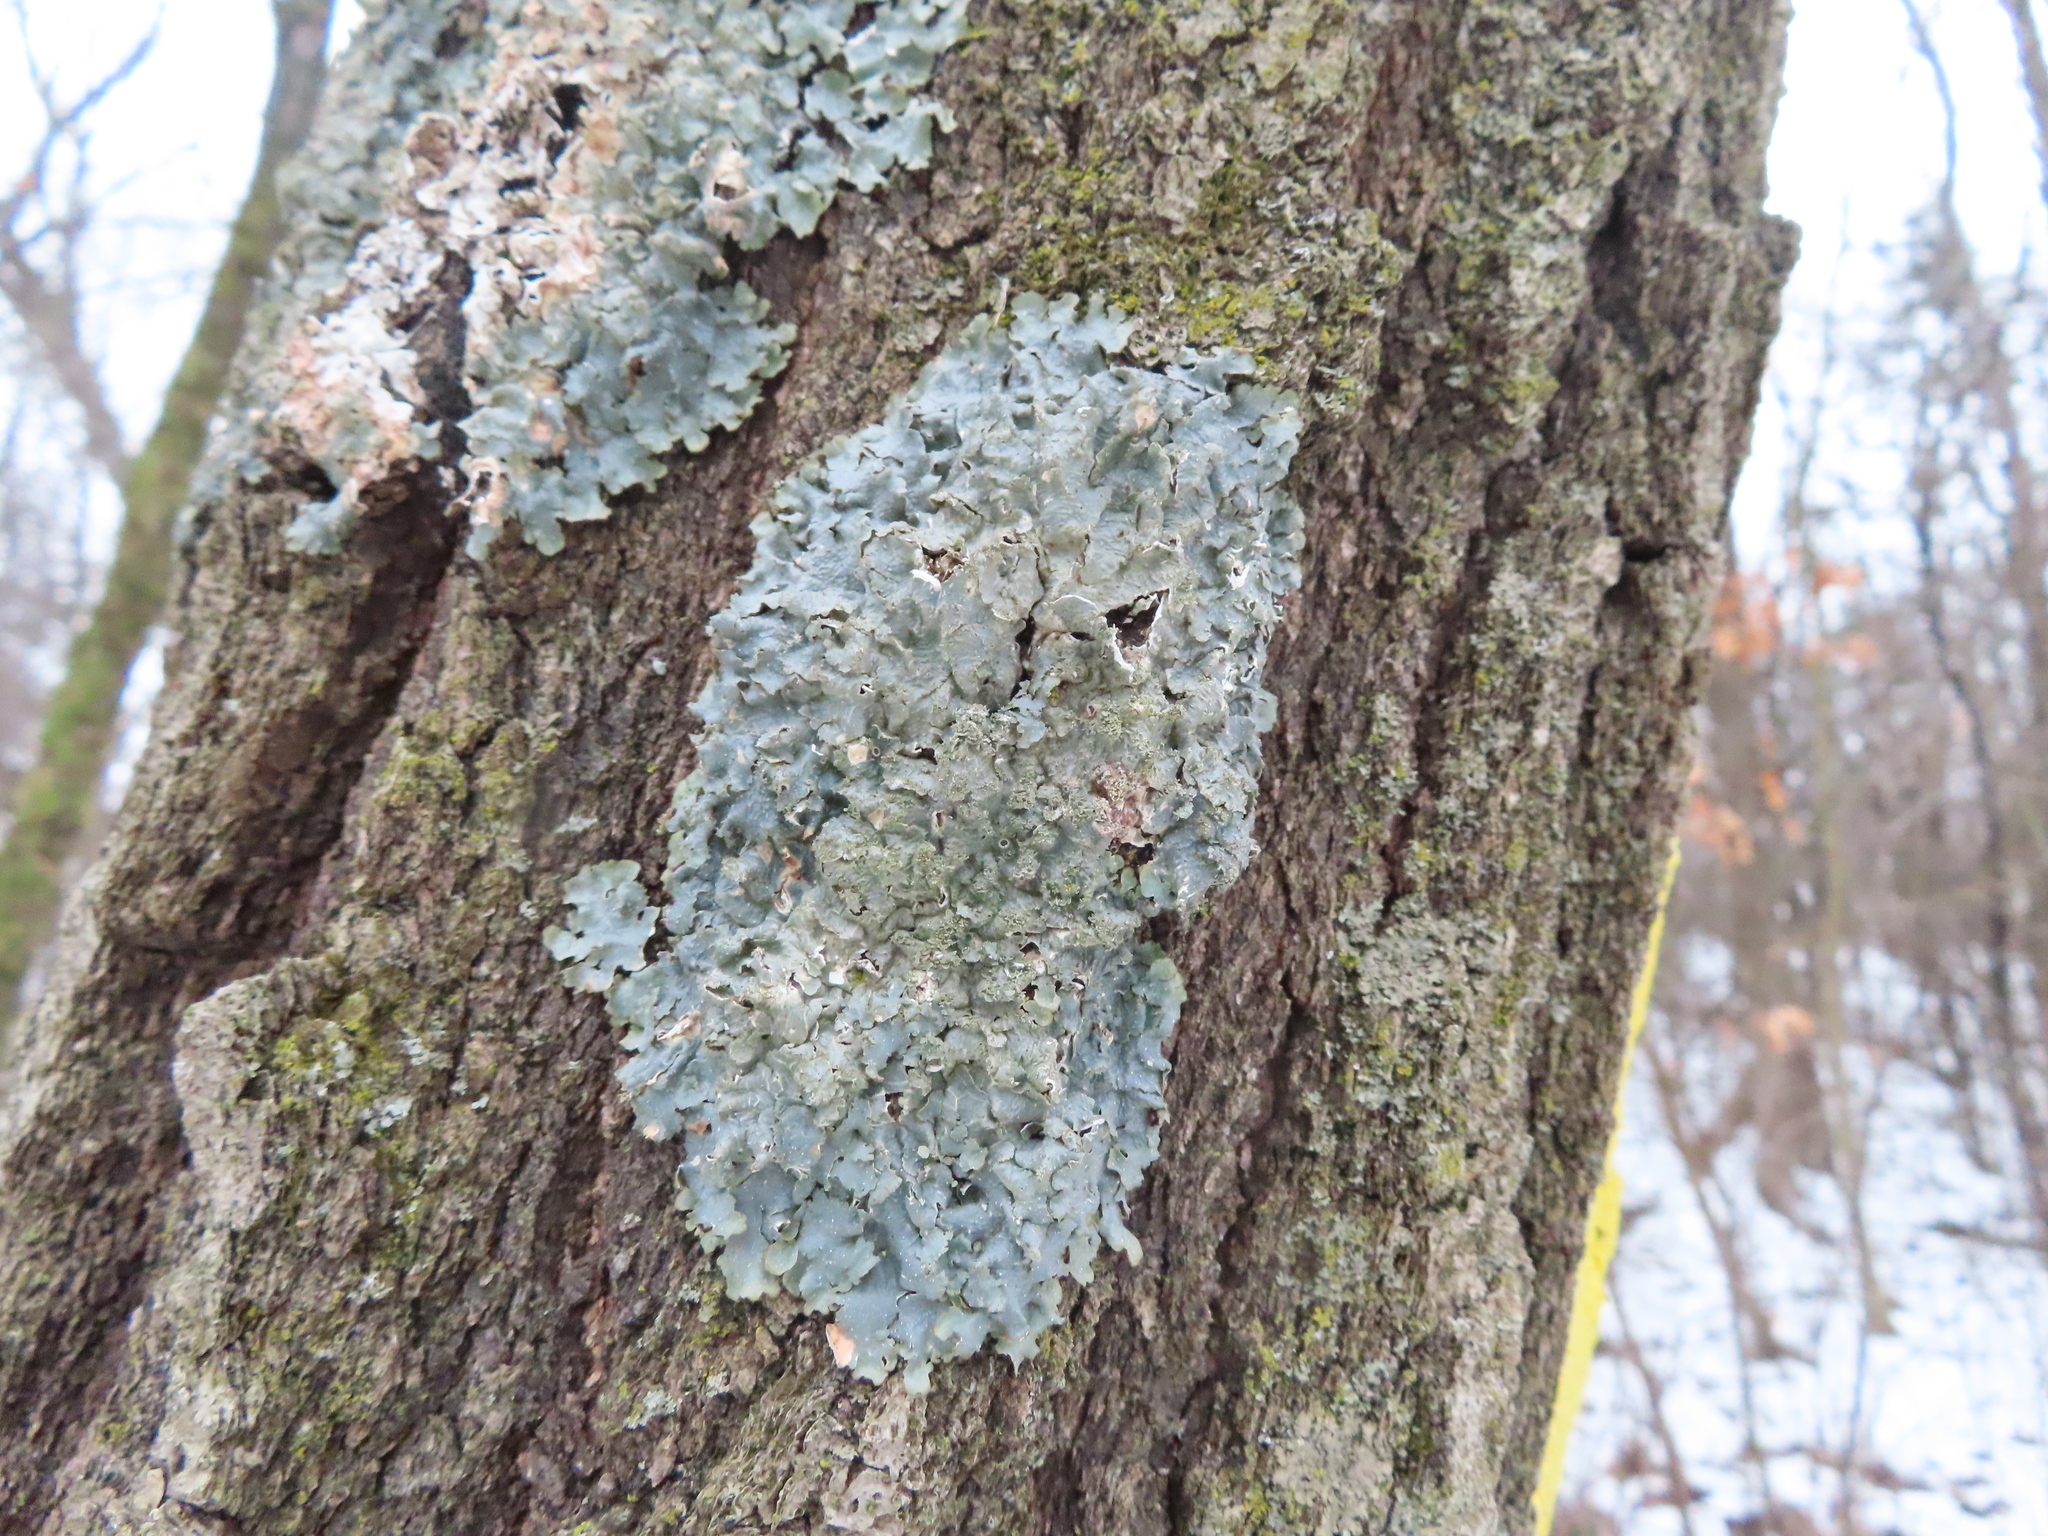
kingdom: Fungi
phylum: Ascomycota
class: Lecanoromycetes
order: Lecanorales
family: Parmeliaceae
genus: Punctelia
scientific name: Punctelia rudecta
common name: Rough speckled shield lichen
